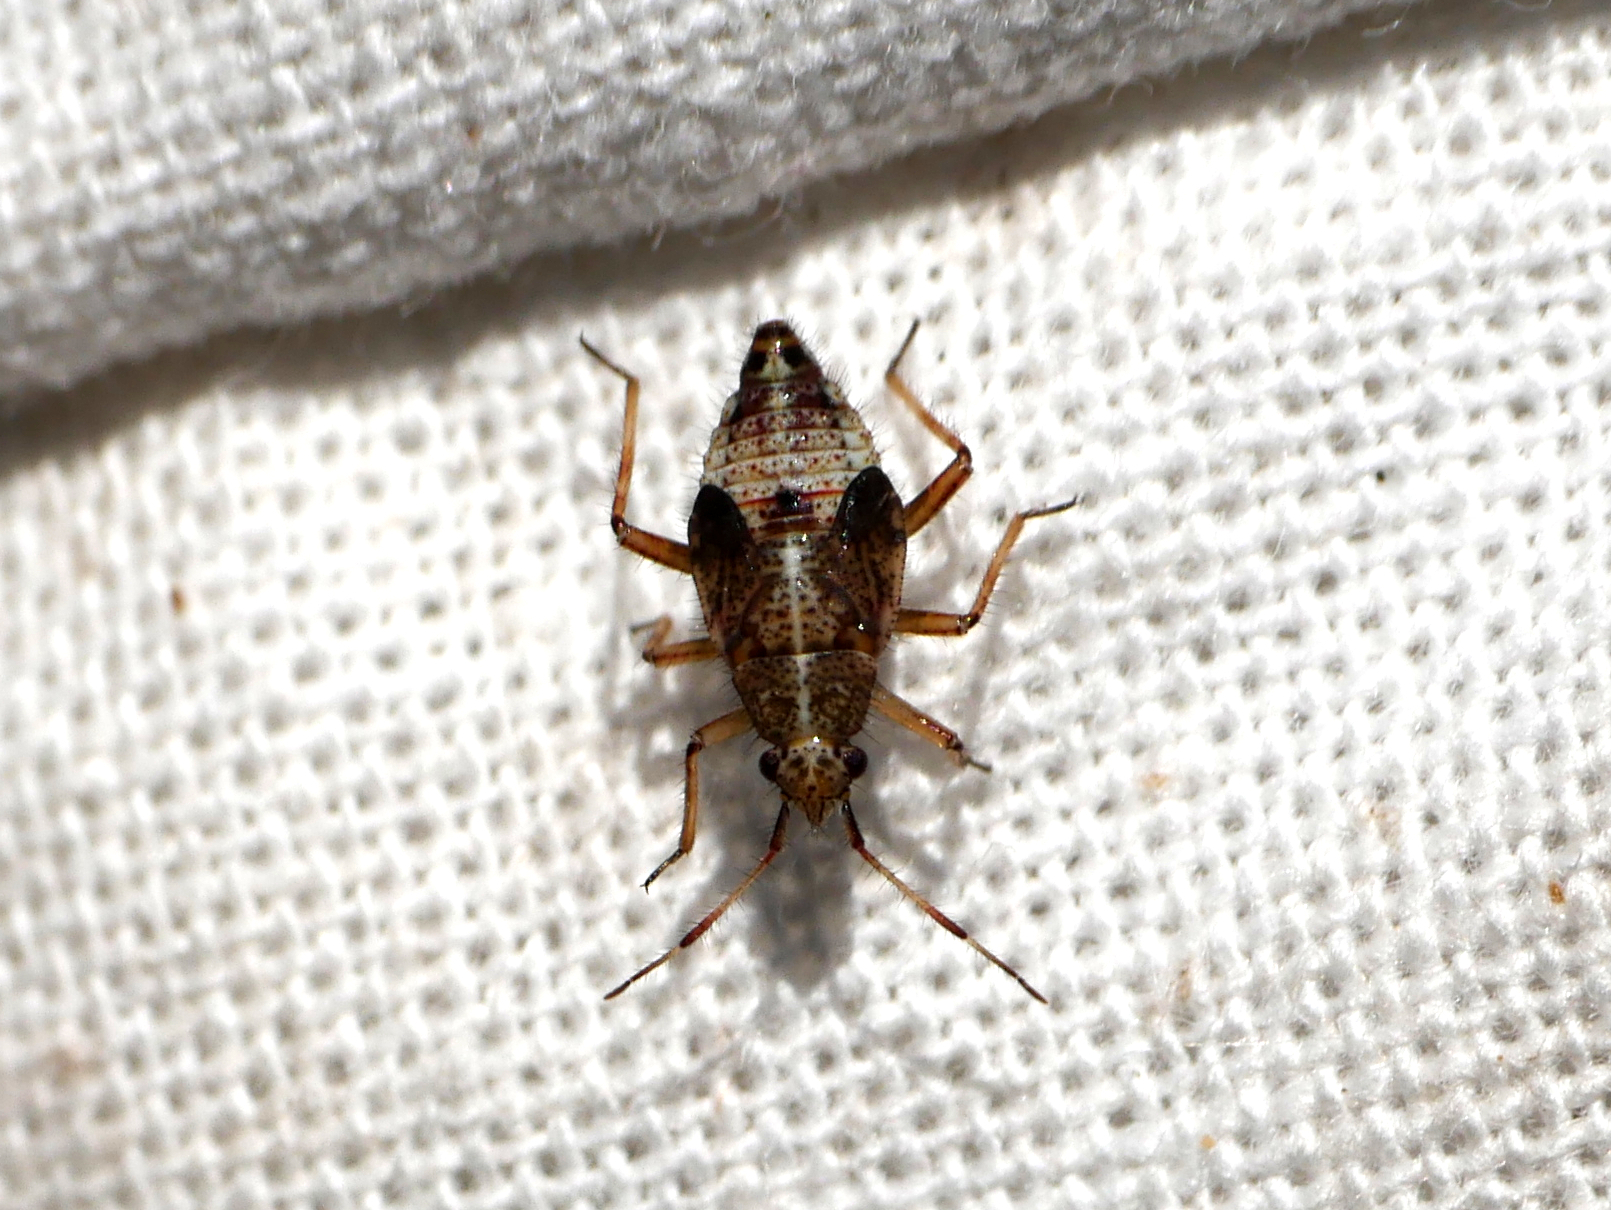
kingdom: Animalia
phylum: Arthropoda
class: Insecta
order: Hemiptera
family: Miridae
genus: Deraeocoris
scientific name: Deraeocoris flavilinea
